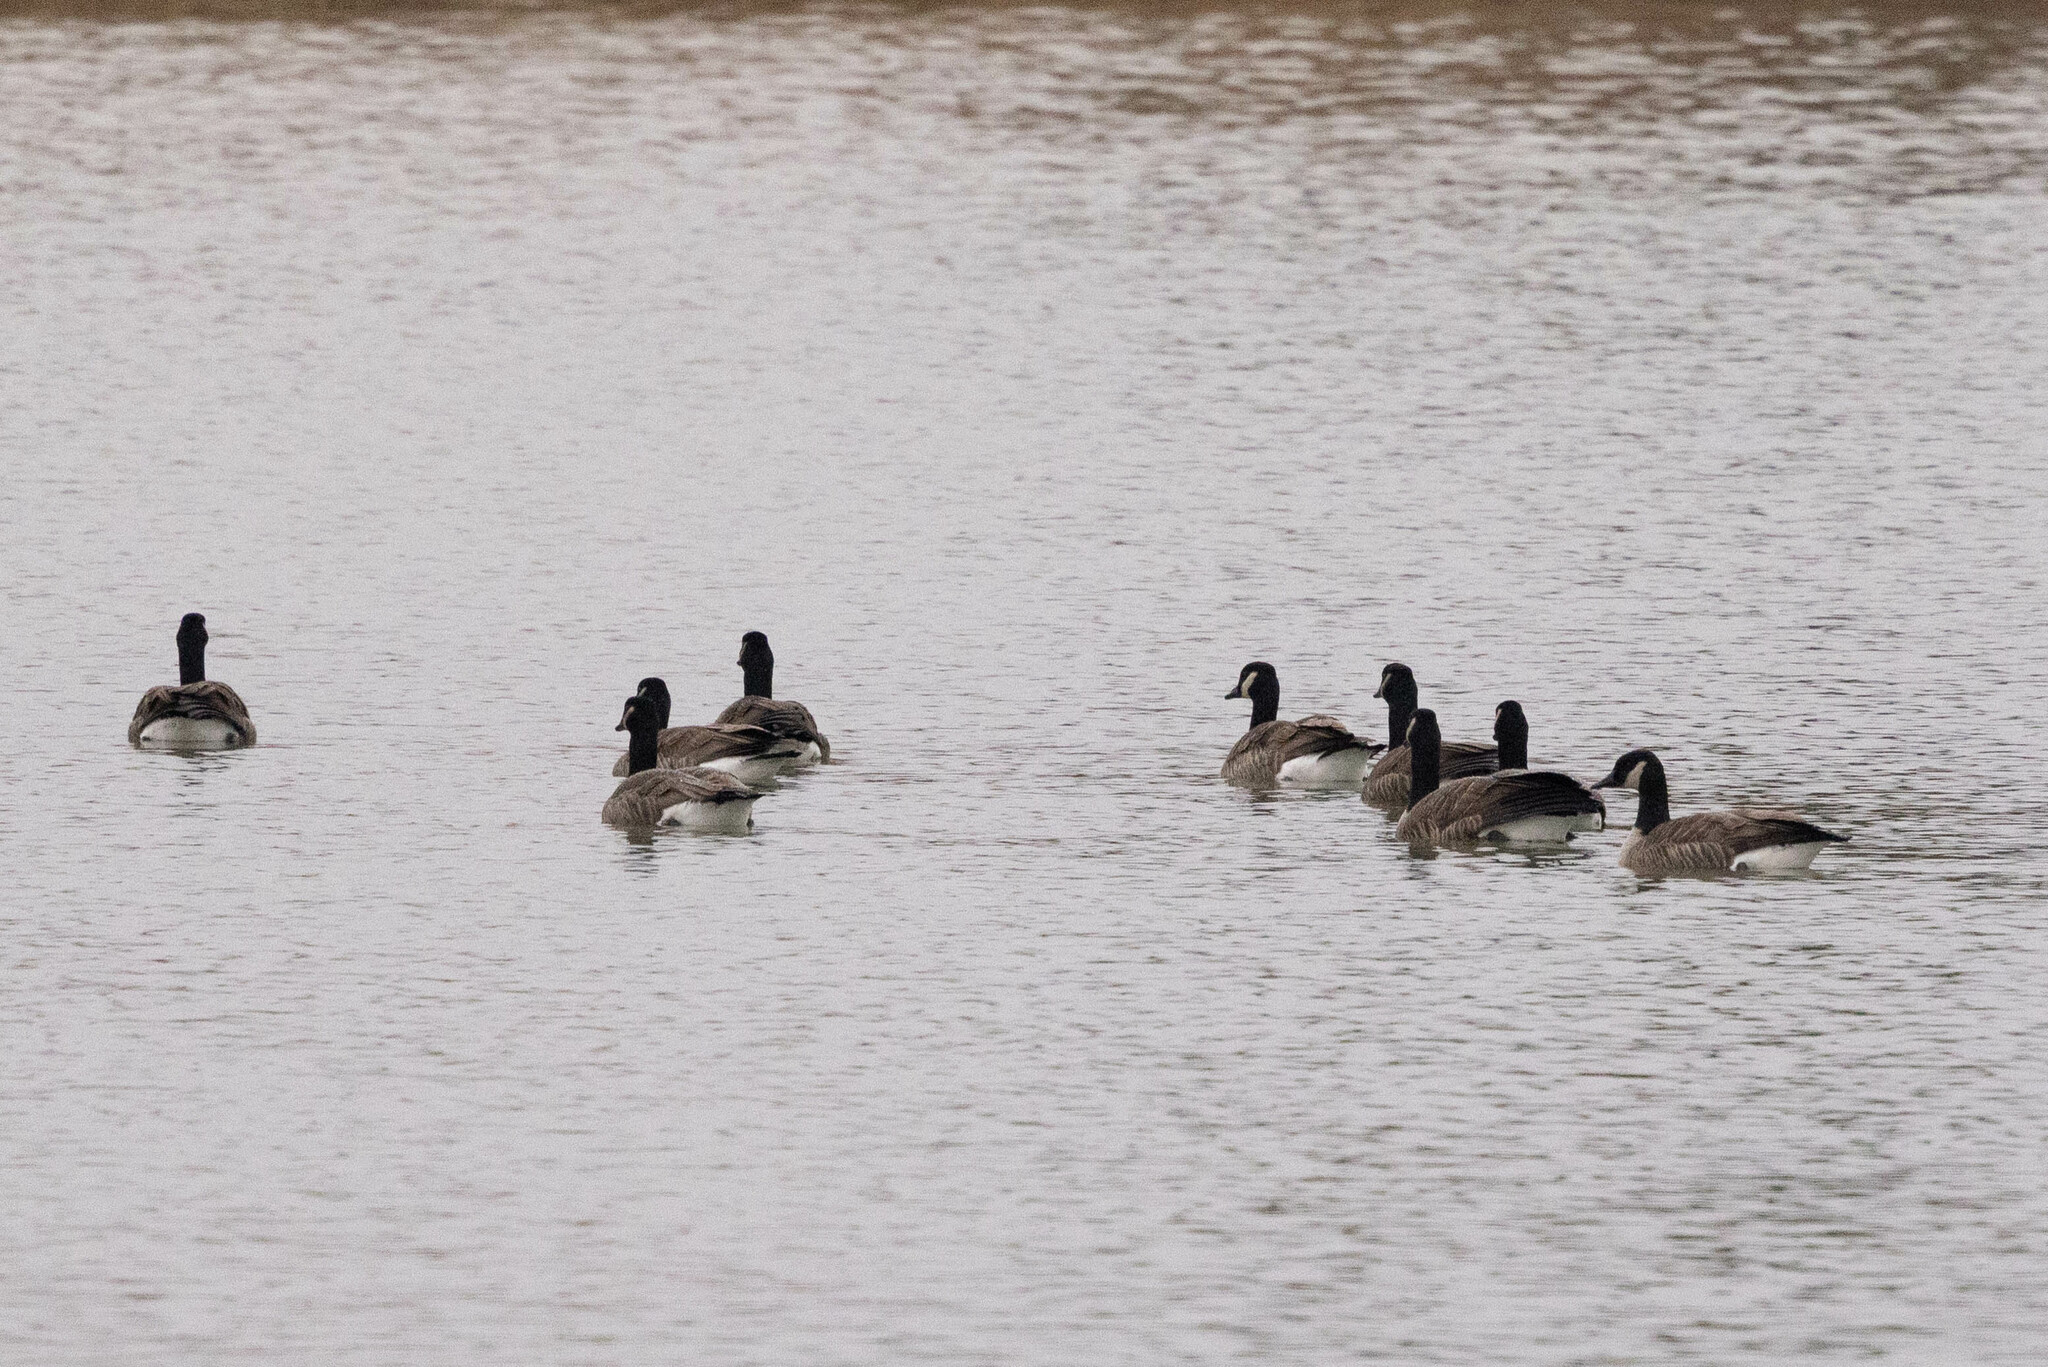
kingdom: Animalia
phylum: Chordata
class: Aves
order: Anseriformes
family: Anatidae
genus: Branta
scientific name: Branta canadensis
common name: Canada goose
